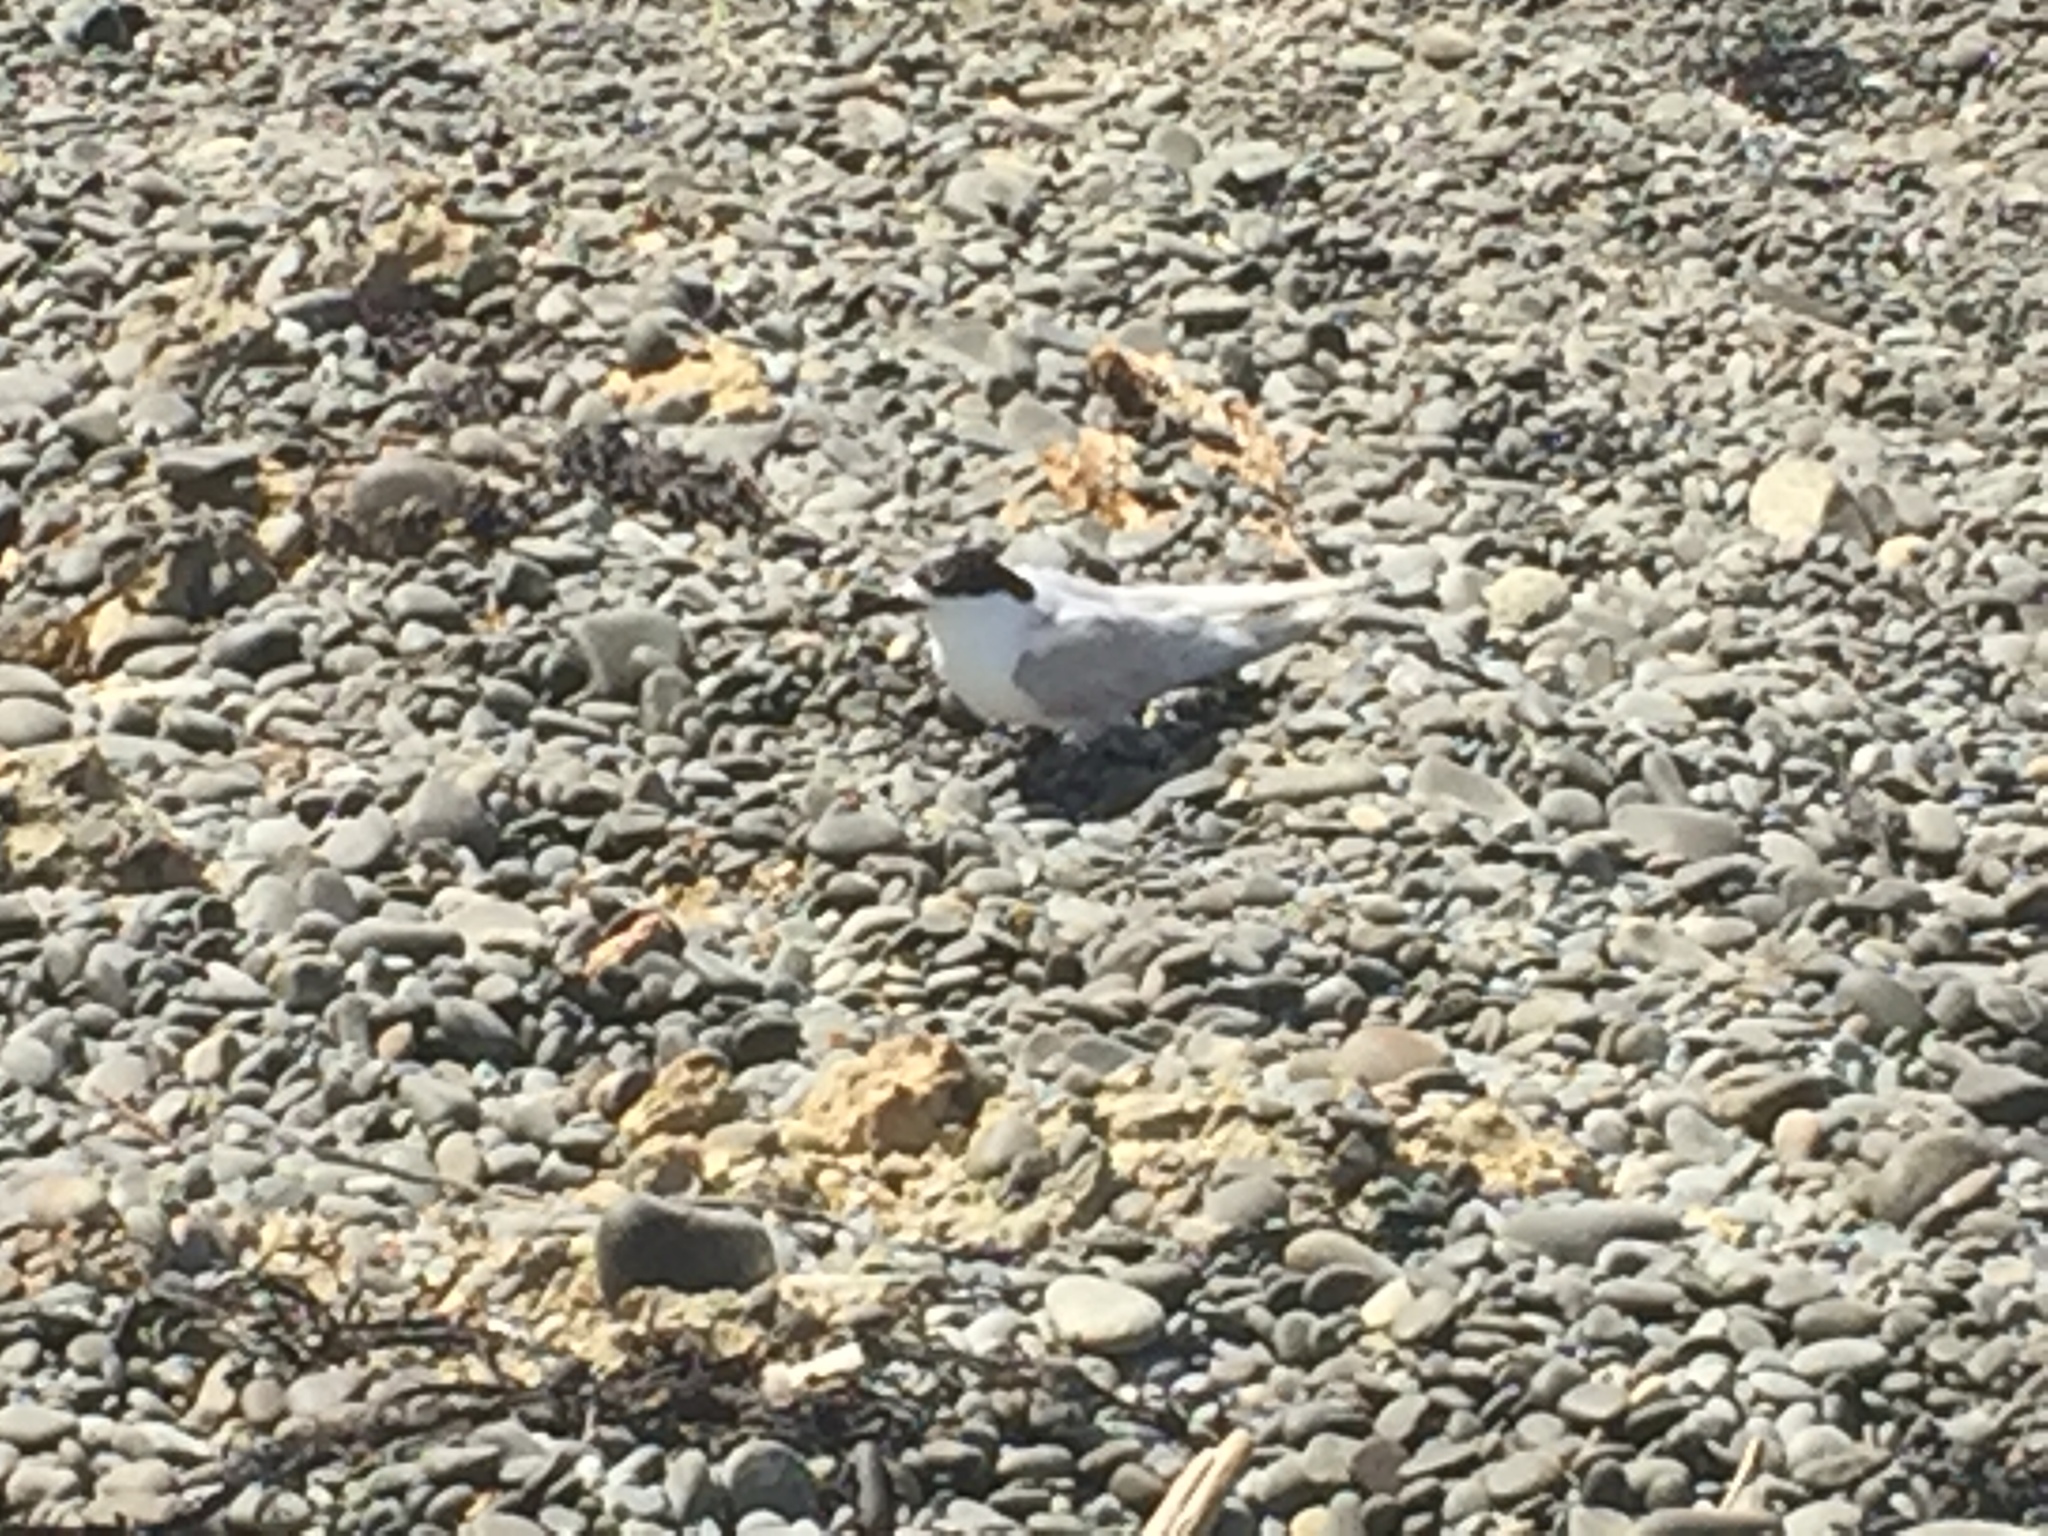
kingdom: Animalia
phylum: Chordata
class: Aves
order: Charadriiformes
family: Laridae
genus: Sterna
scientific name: Sterna striata
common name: White-fronted tern
